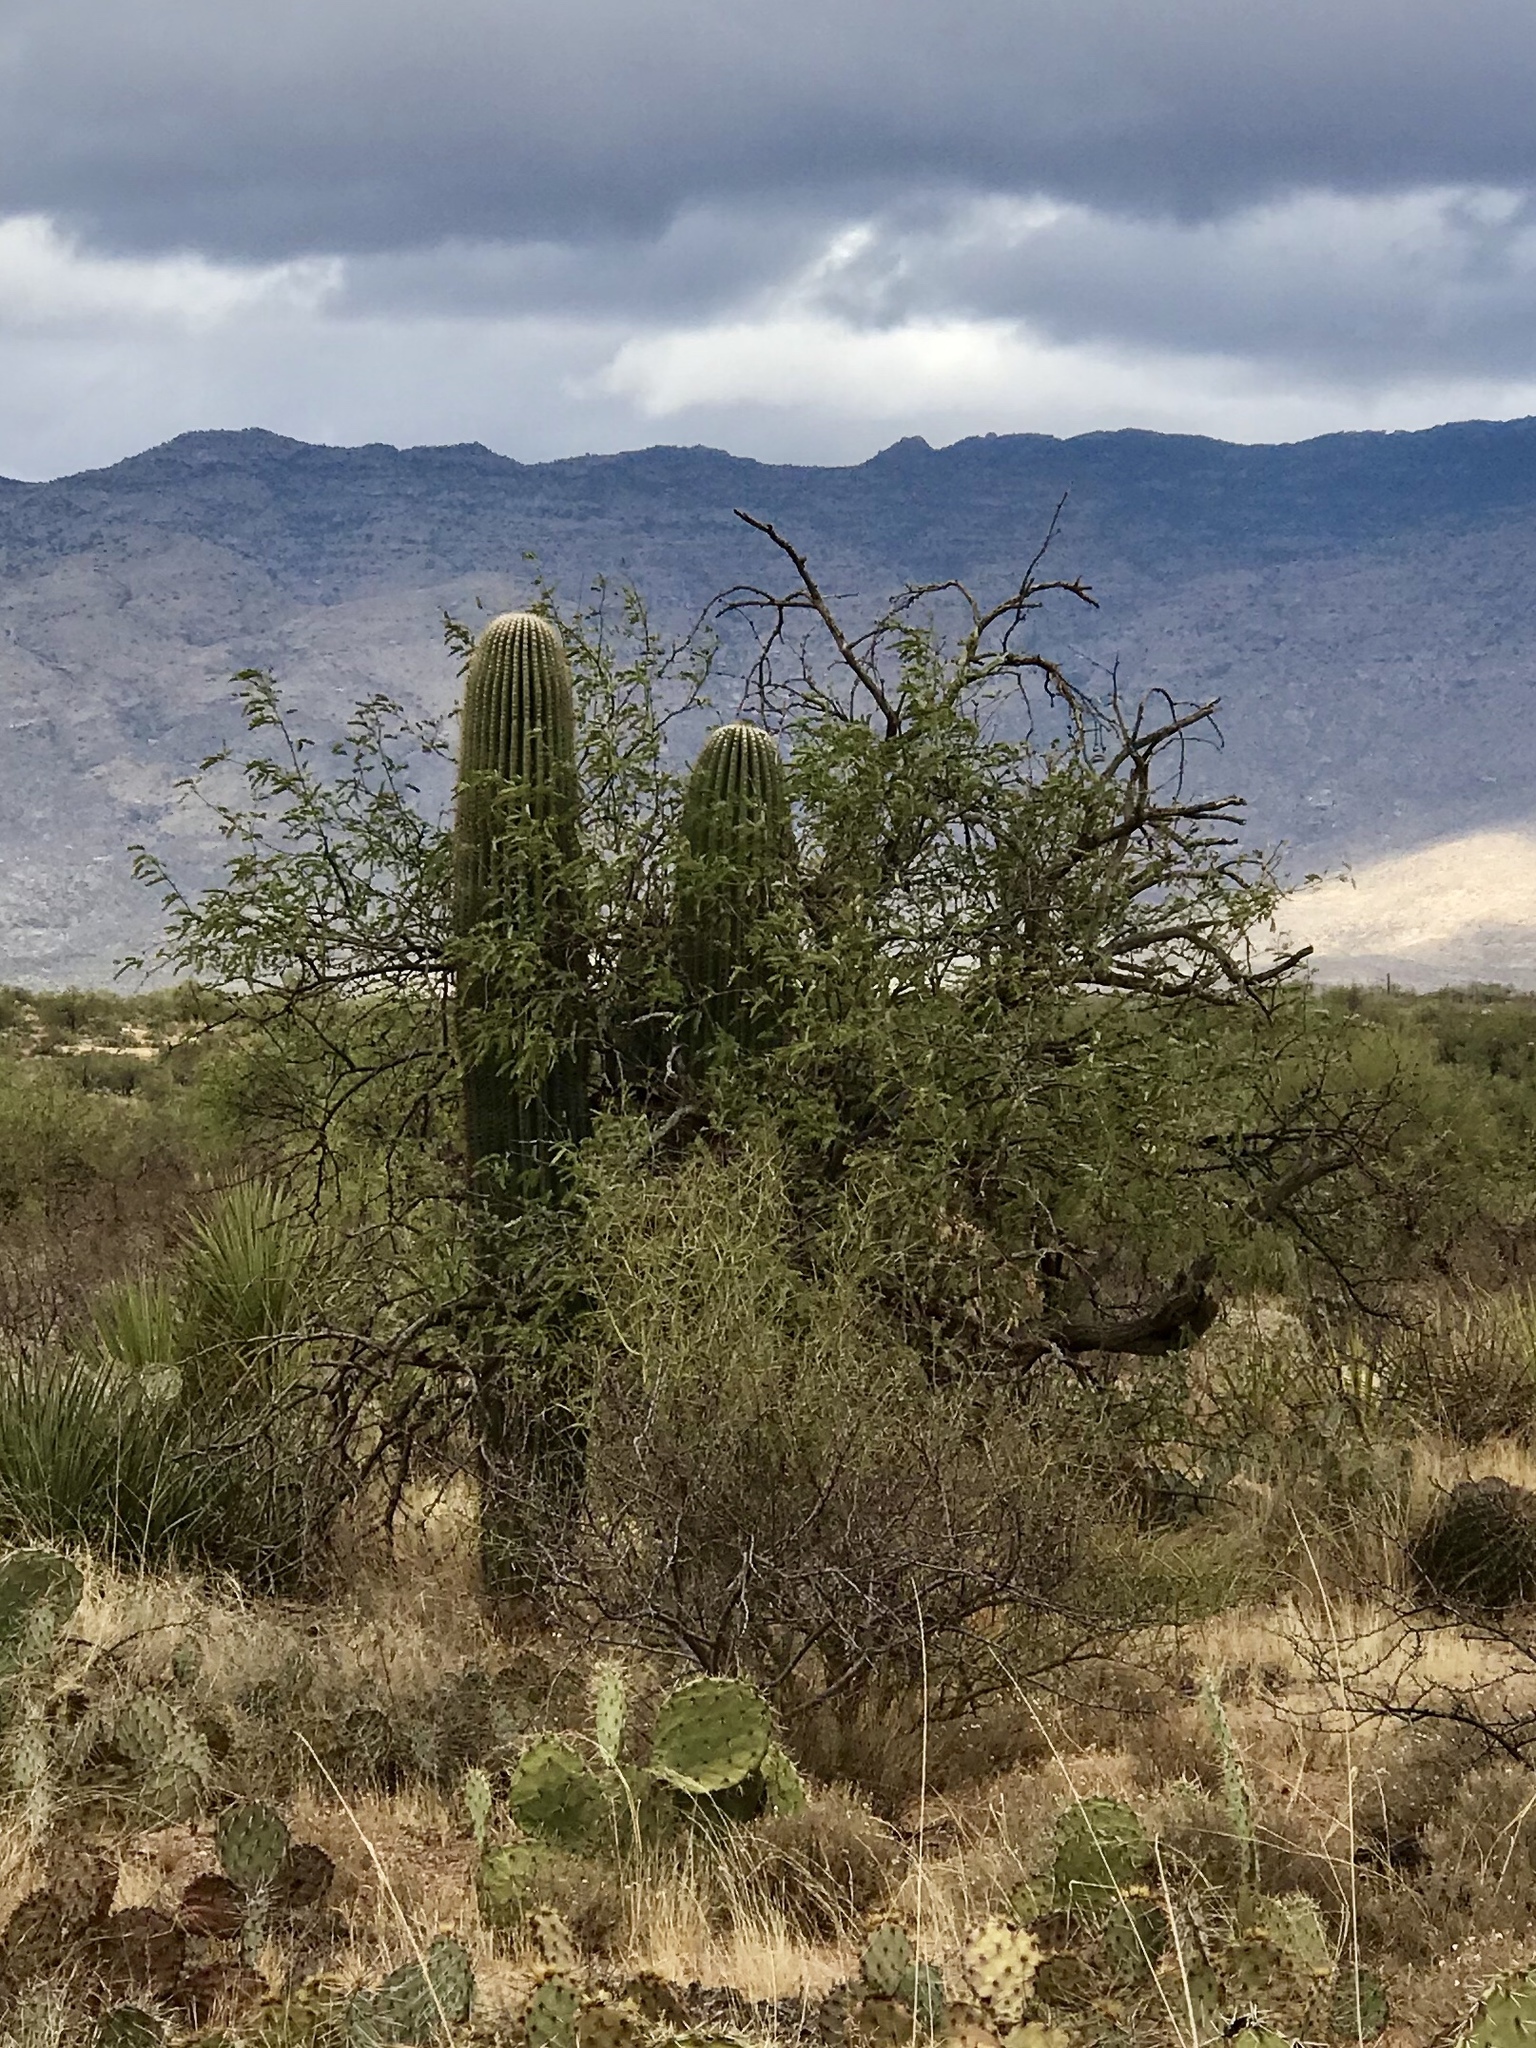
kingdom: Plantae
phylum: Tracheophyta
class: Magnoliopsida
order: Caryophyllales
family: Cactaceae
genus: Carnegiea
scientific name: Carnegiea gigantea
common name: Saguaro
